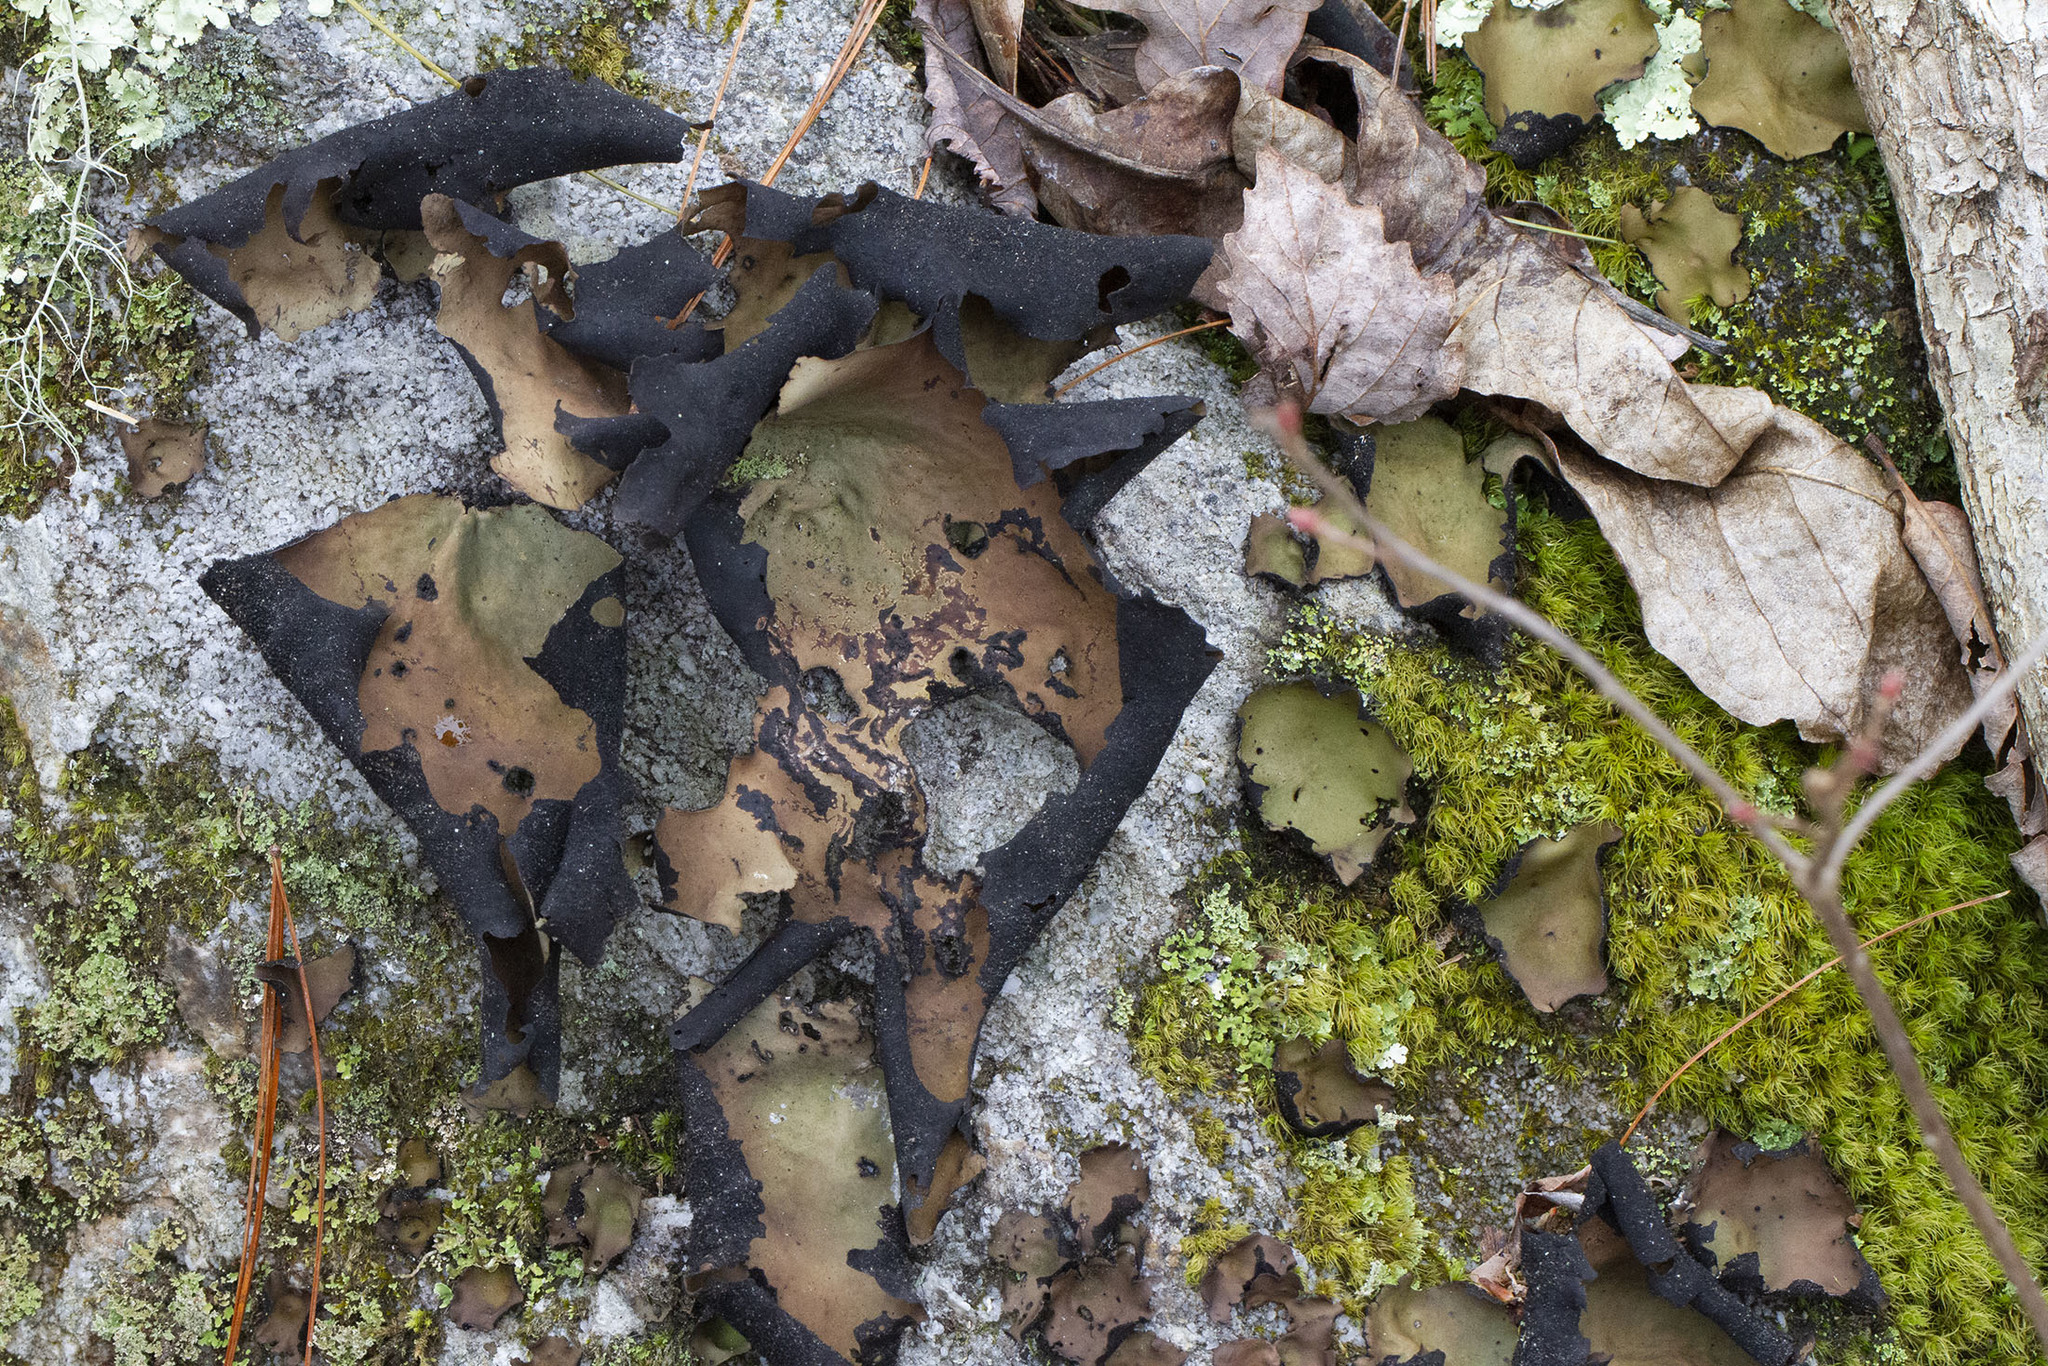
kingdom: Fungi
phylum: Ascomycota
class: Lecanoromycetes
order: Umbilicariales
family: Umbilicariaceae
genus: Umbilicaria
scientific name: Umbilicaria mammulata
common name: Smooth rock tripe
